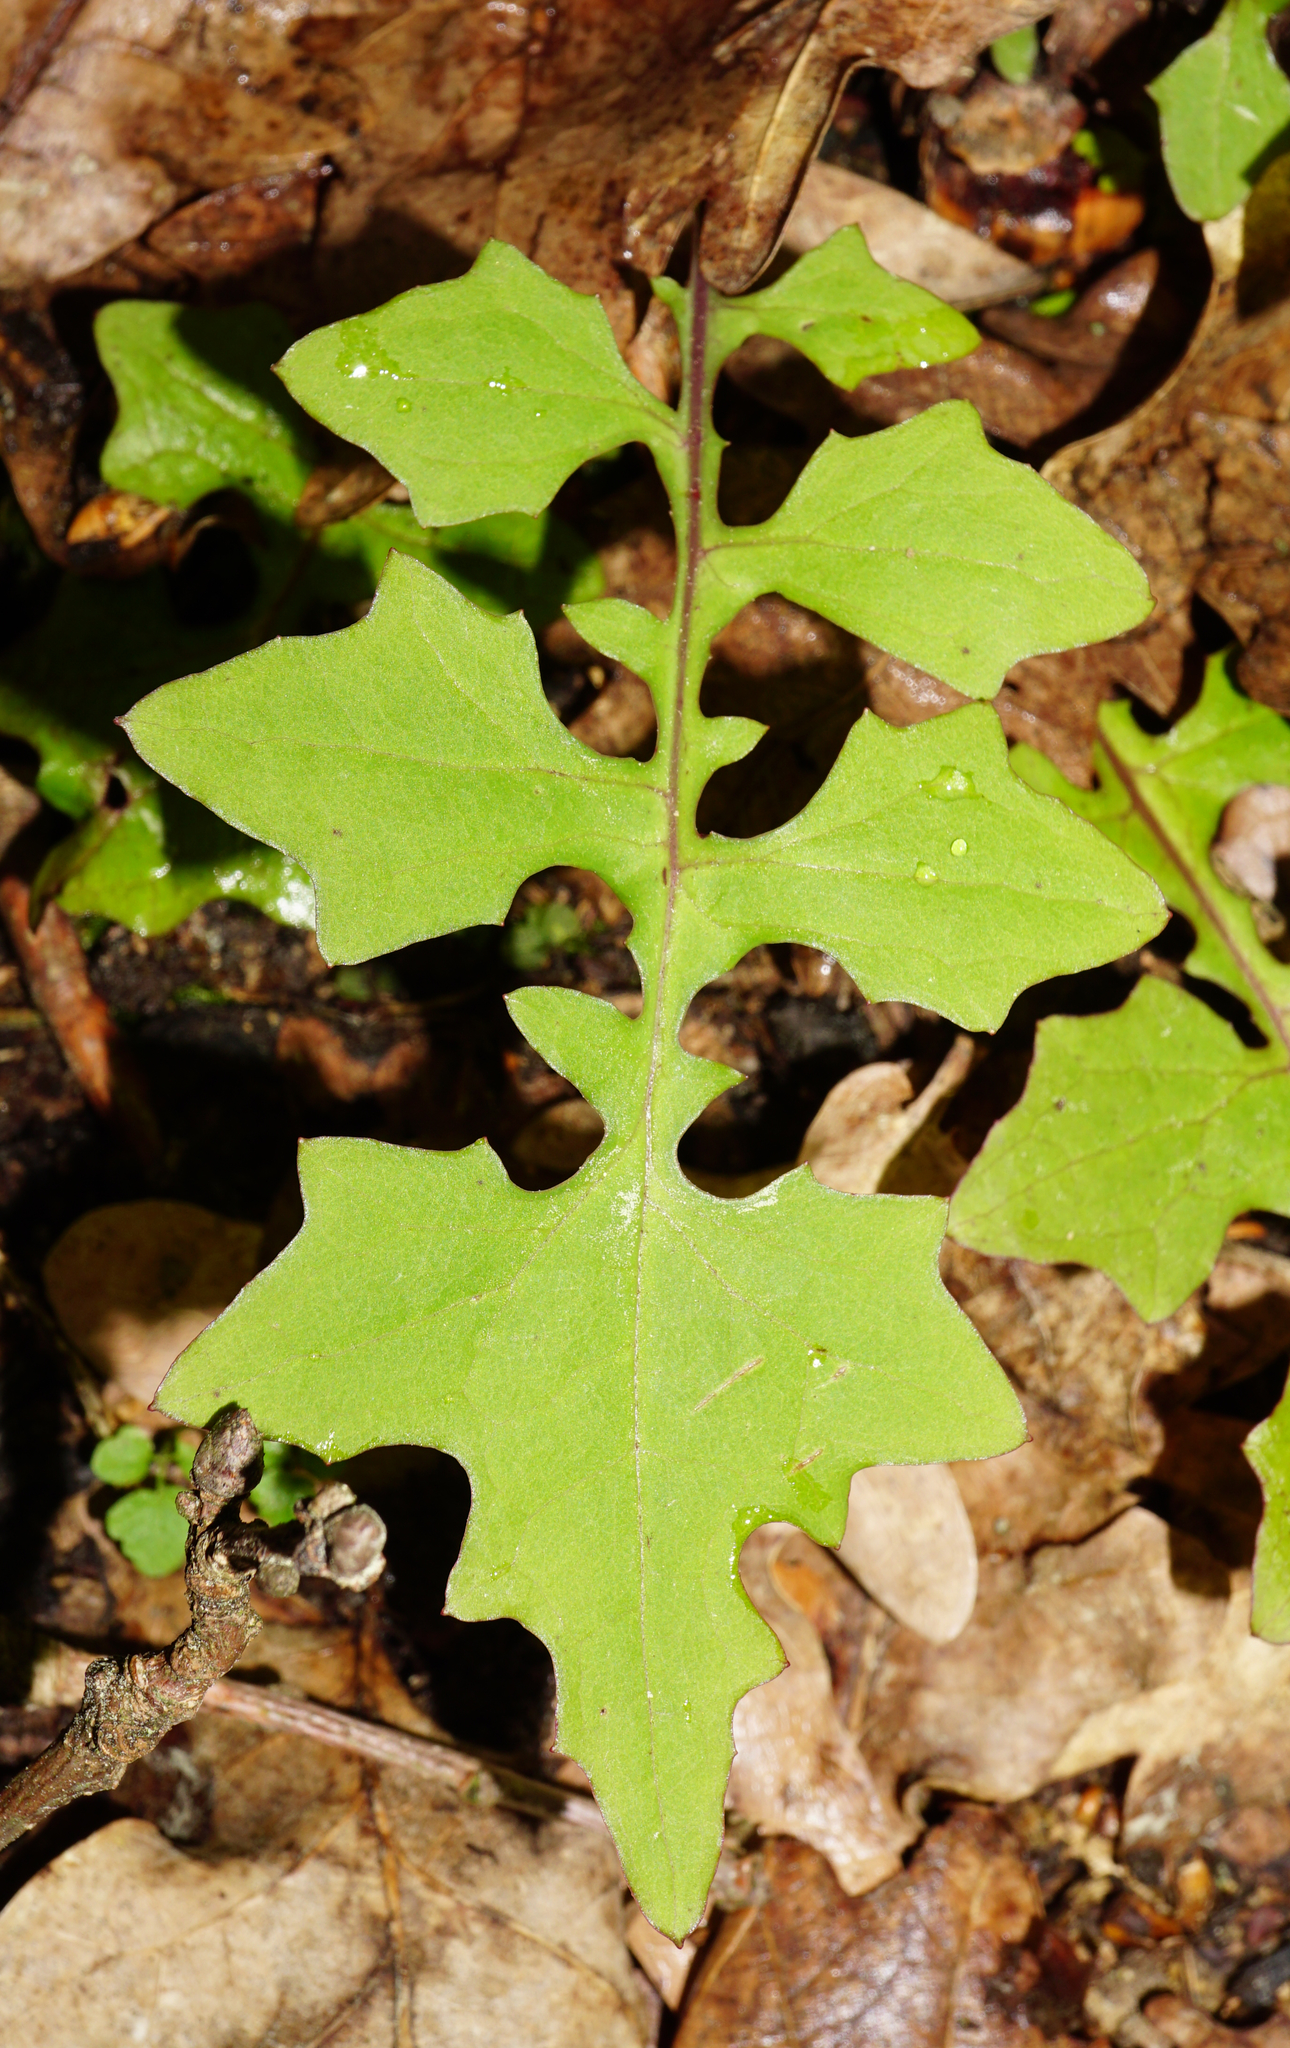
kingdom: Plantae
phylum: Tracheophyta
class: Magnoliopsida
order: Asterales
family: Asteraceae
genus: Mycelis
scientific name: Mycelis muralis
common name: Wall lettuce
